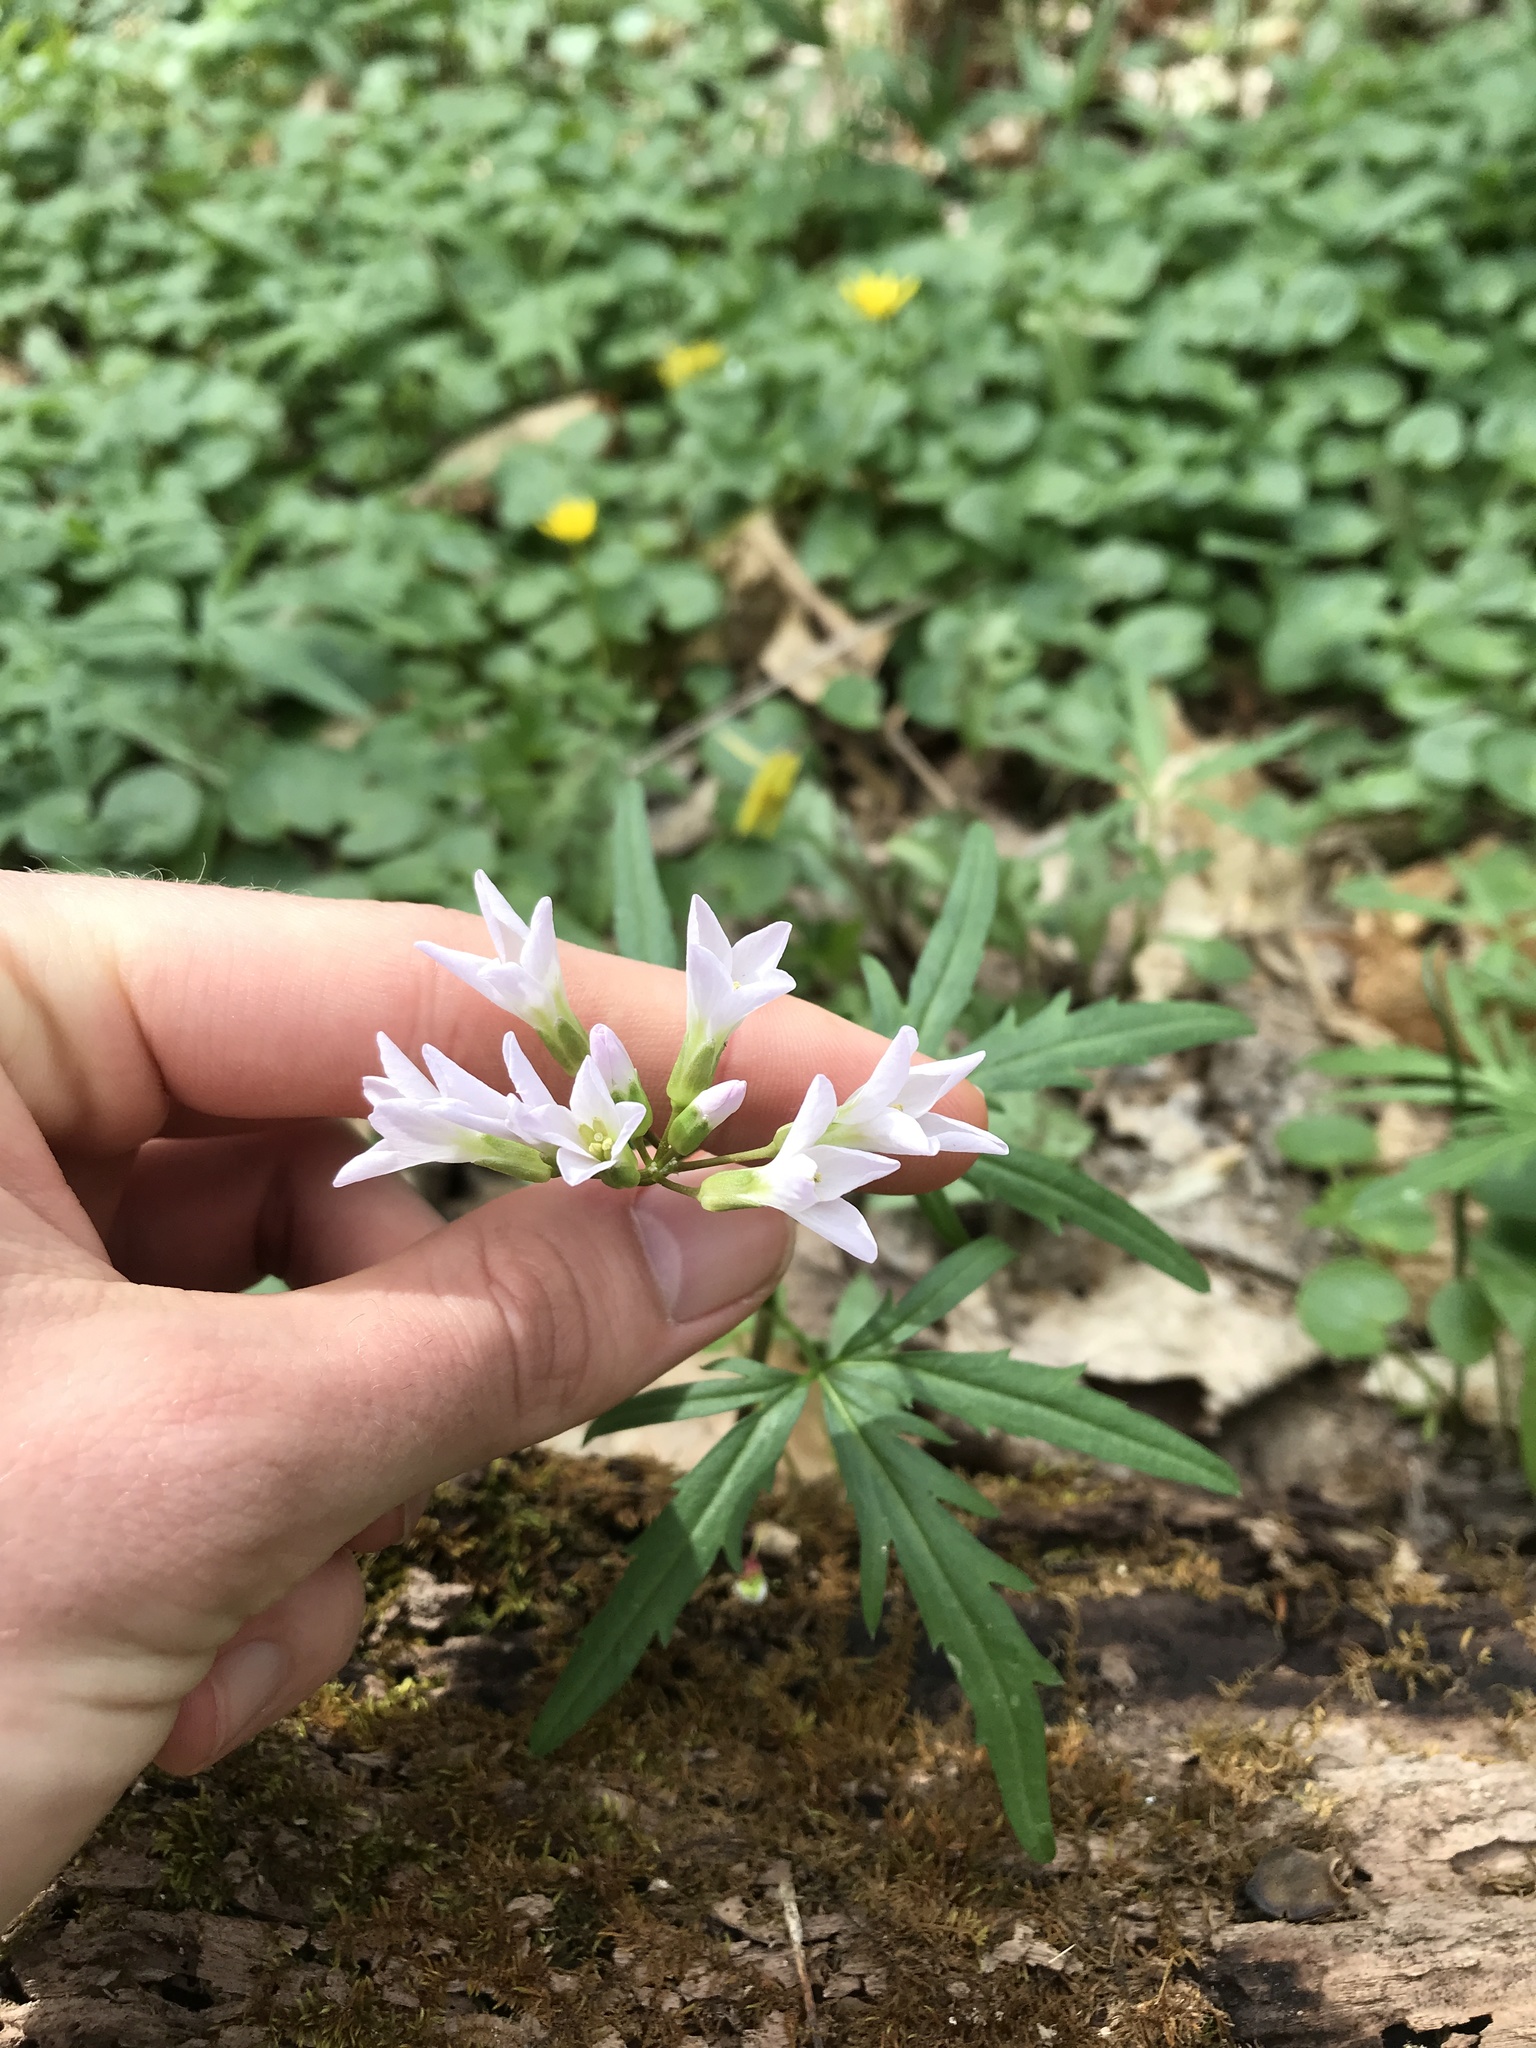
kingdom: Plantae
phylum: Tracheophyta
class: Magnoliopsida
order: Brassicales
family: Brassicaceae
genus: Cardamine
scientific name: Cardamine concatenata
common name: Cut-leaf toothcup
